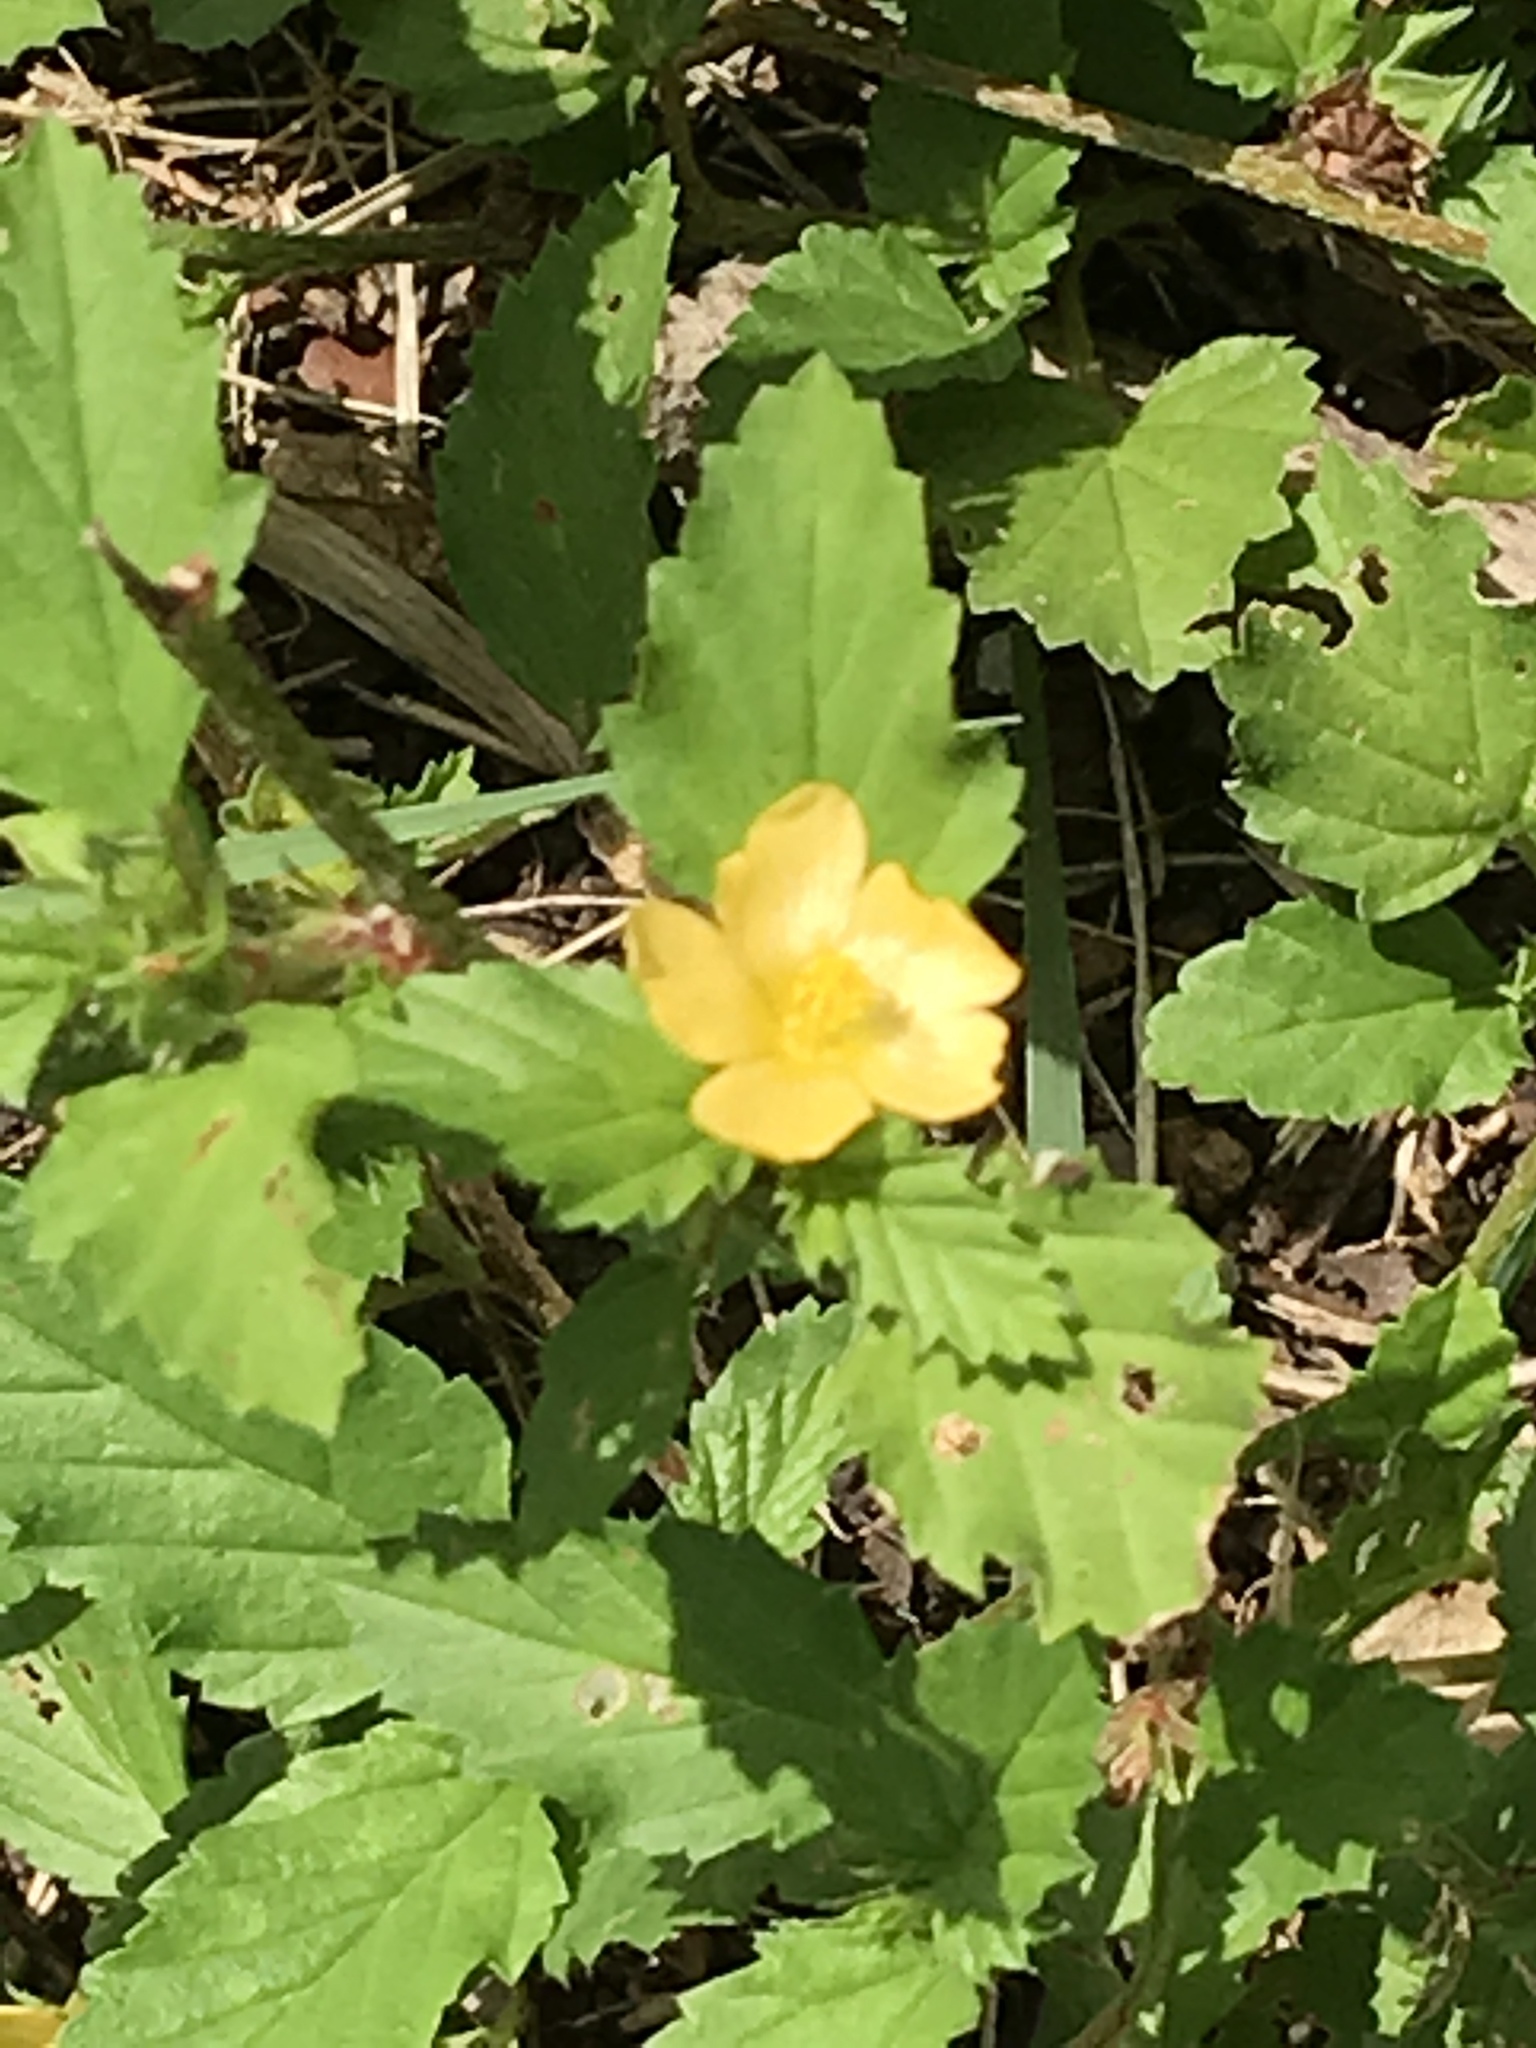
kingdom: Plantae
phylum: Tracheophyta
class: Magnoliopsida
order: Malvales
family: Malvaceae
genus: Malvastrum
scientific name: Malvastrum coromandelianum
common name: Threelobe false mallow
